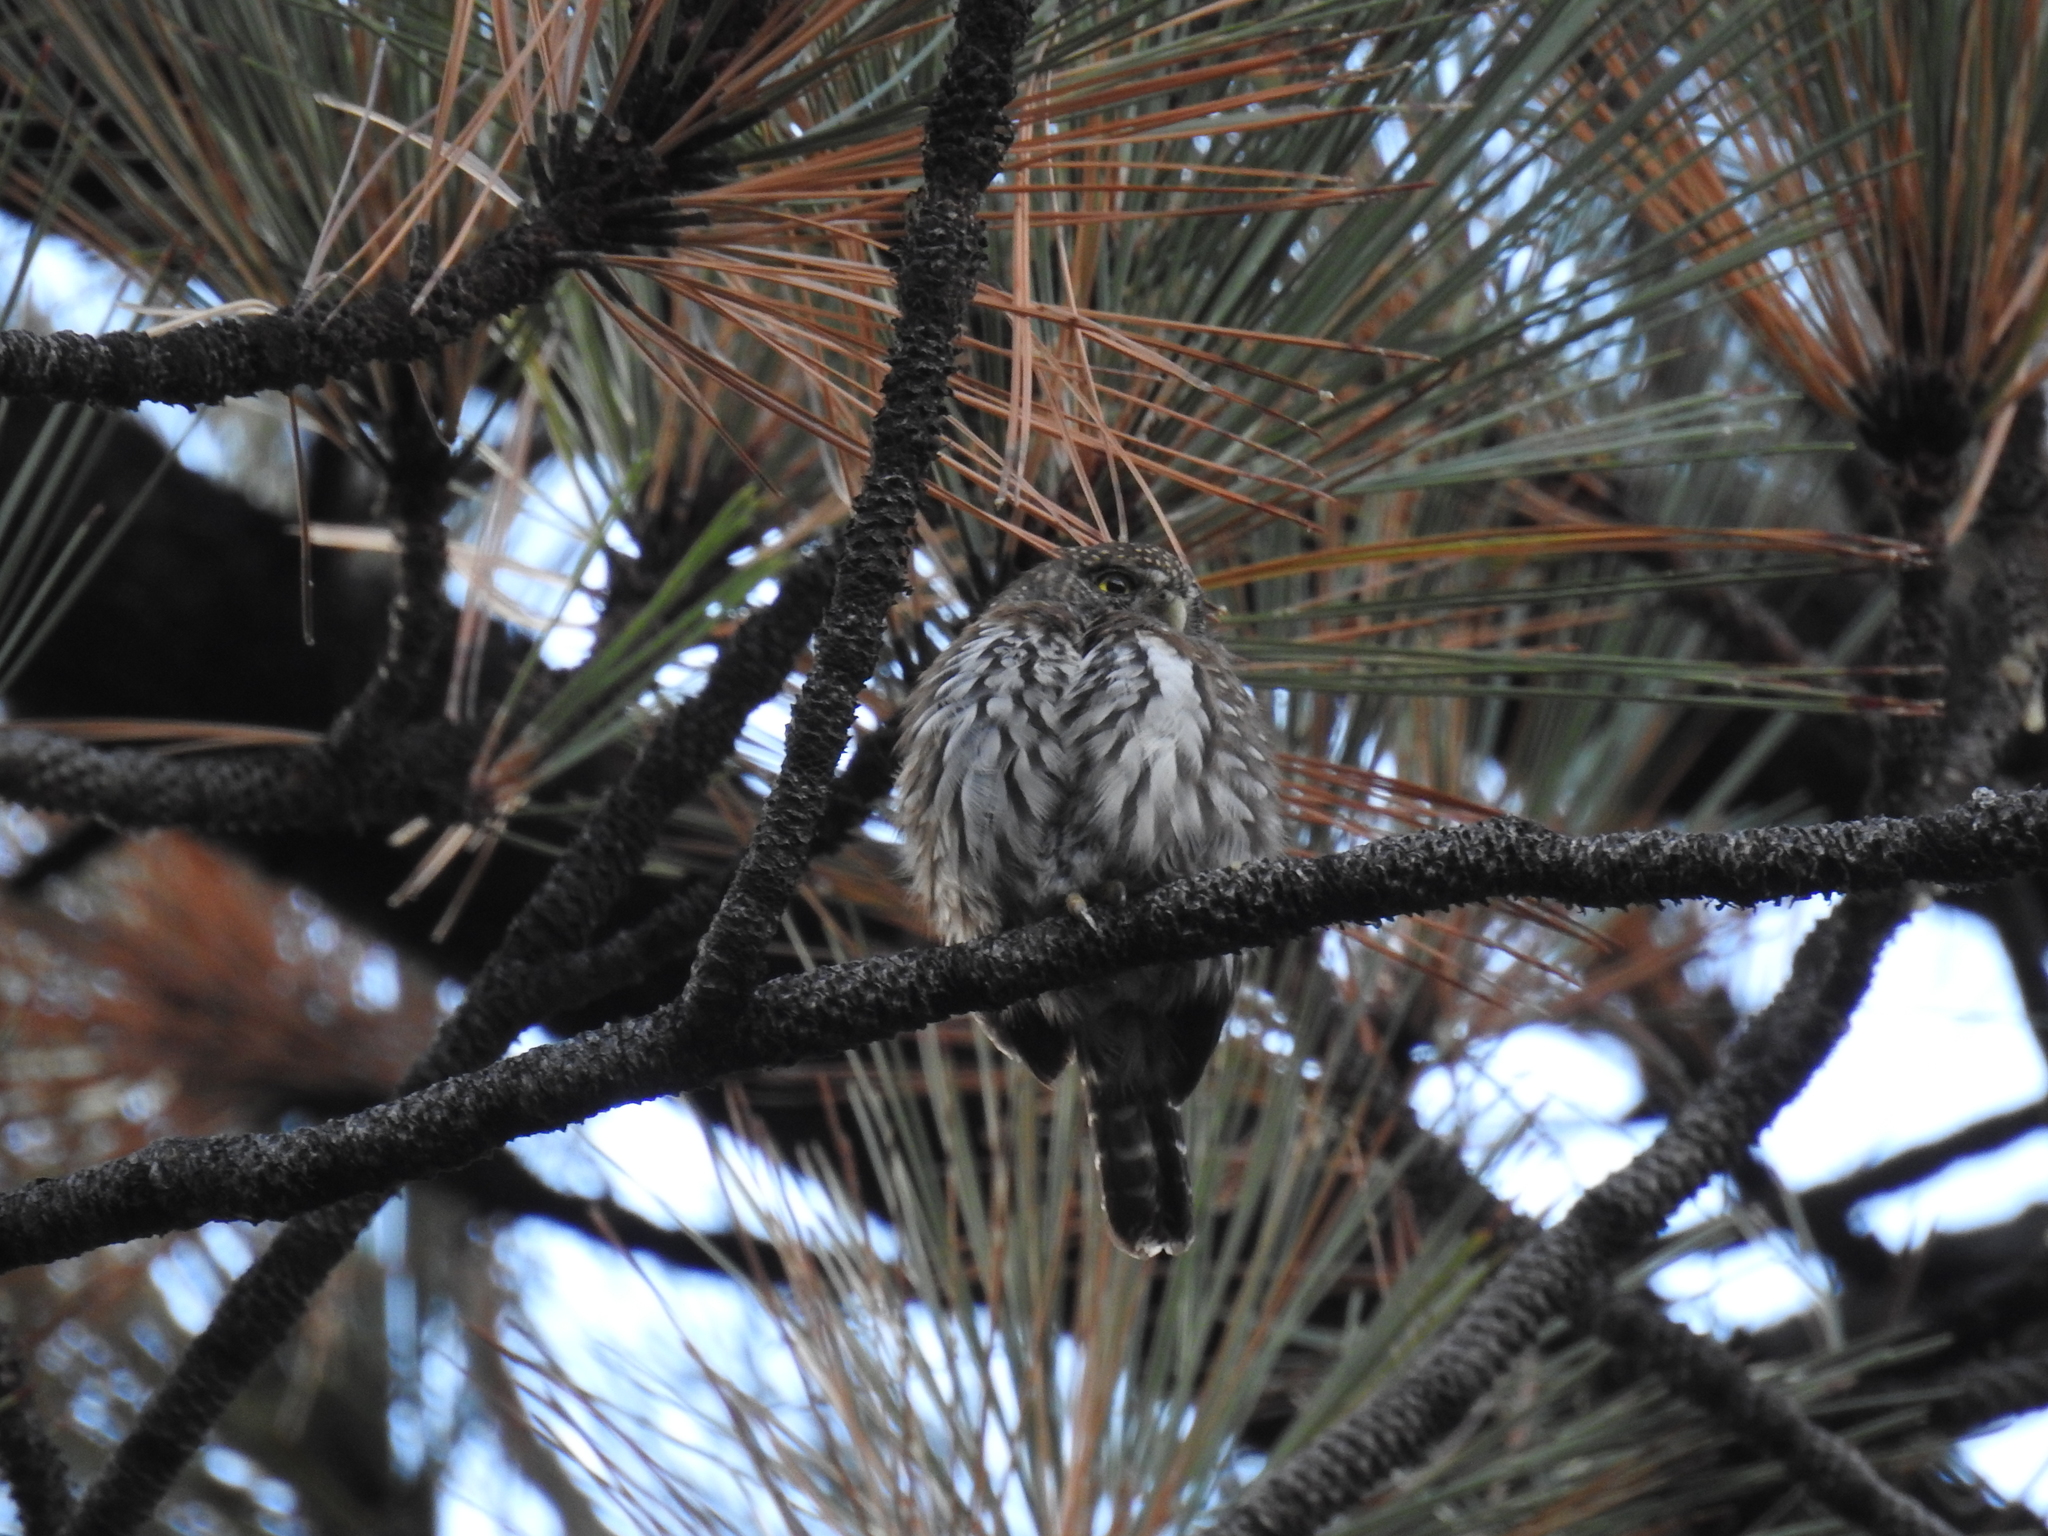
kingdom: Animalia
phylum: Chordata
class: Aves
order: Strigiformes
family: Strigidae
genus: Glaucidium
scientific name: Glaucidium gnoma
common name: Northern pygmy-owl
